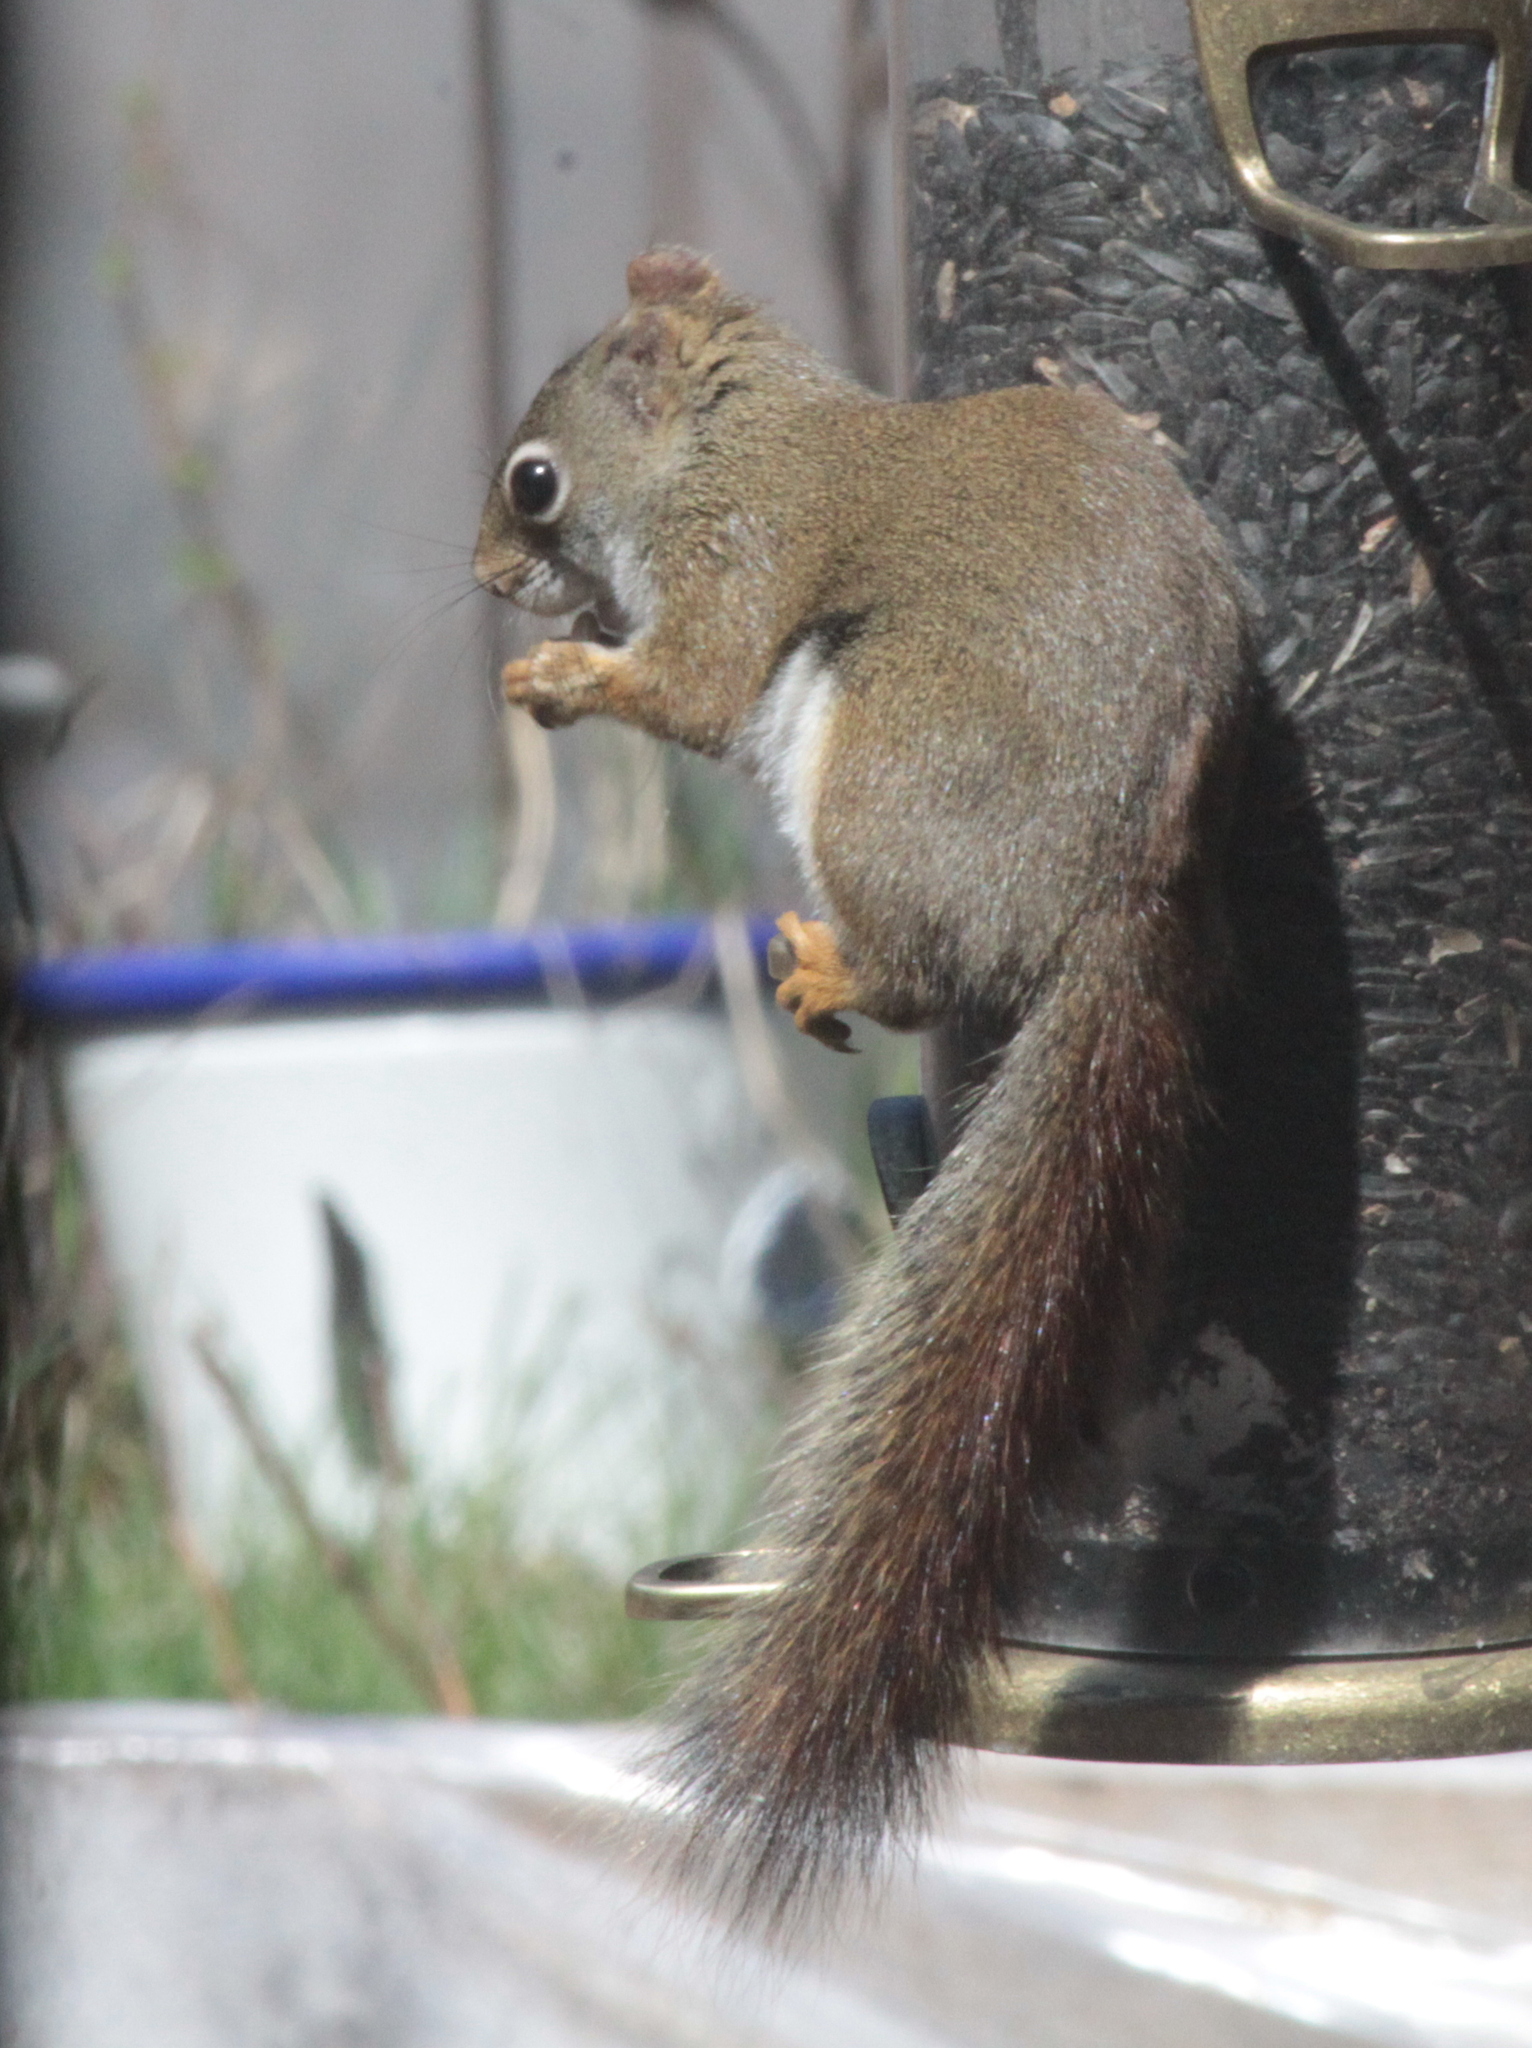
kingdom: Animalia
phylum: Chordata
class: Mammalia
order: Rodentia
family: Sciuridae
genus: Tamiasciurus
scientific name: Tamiasciurus hudsonicus
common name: Red squirrel
